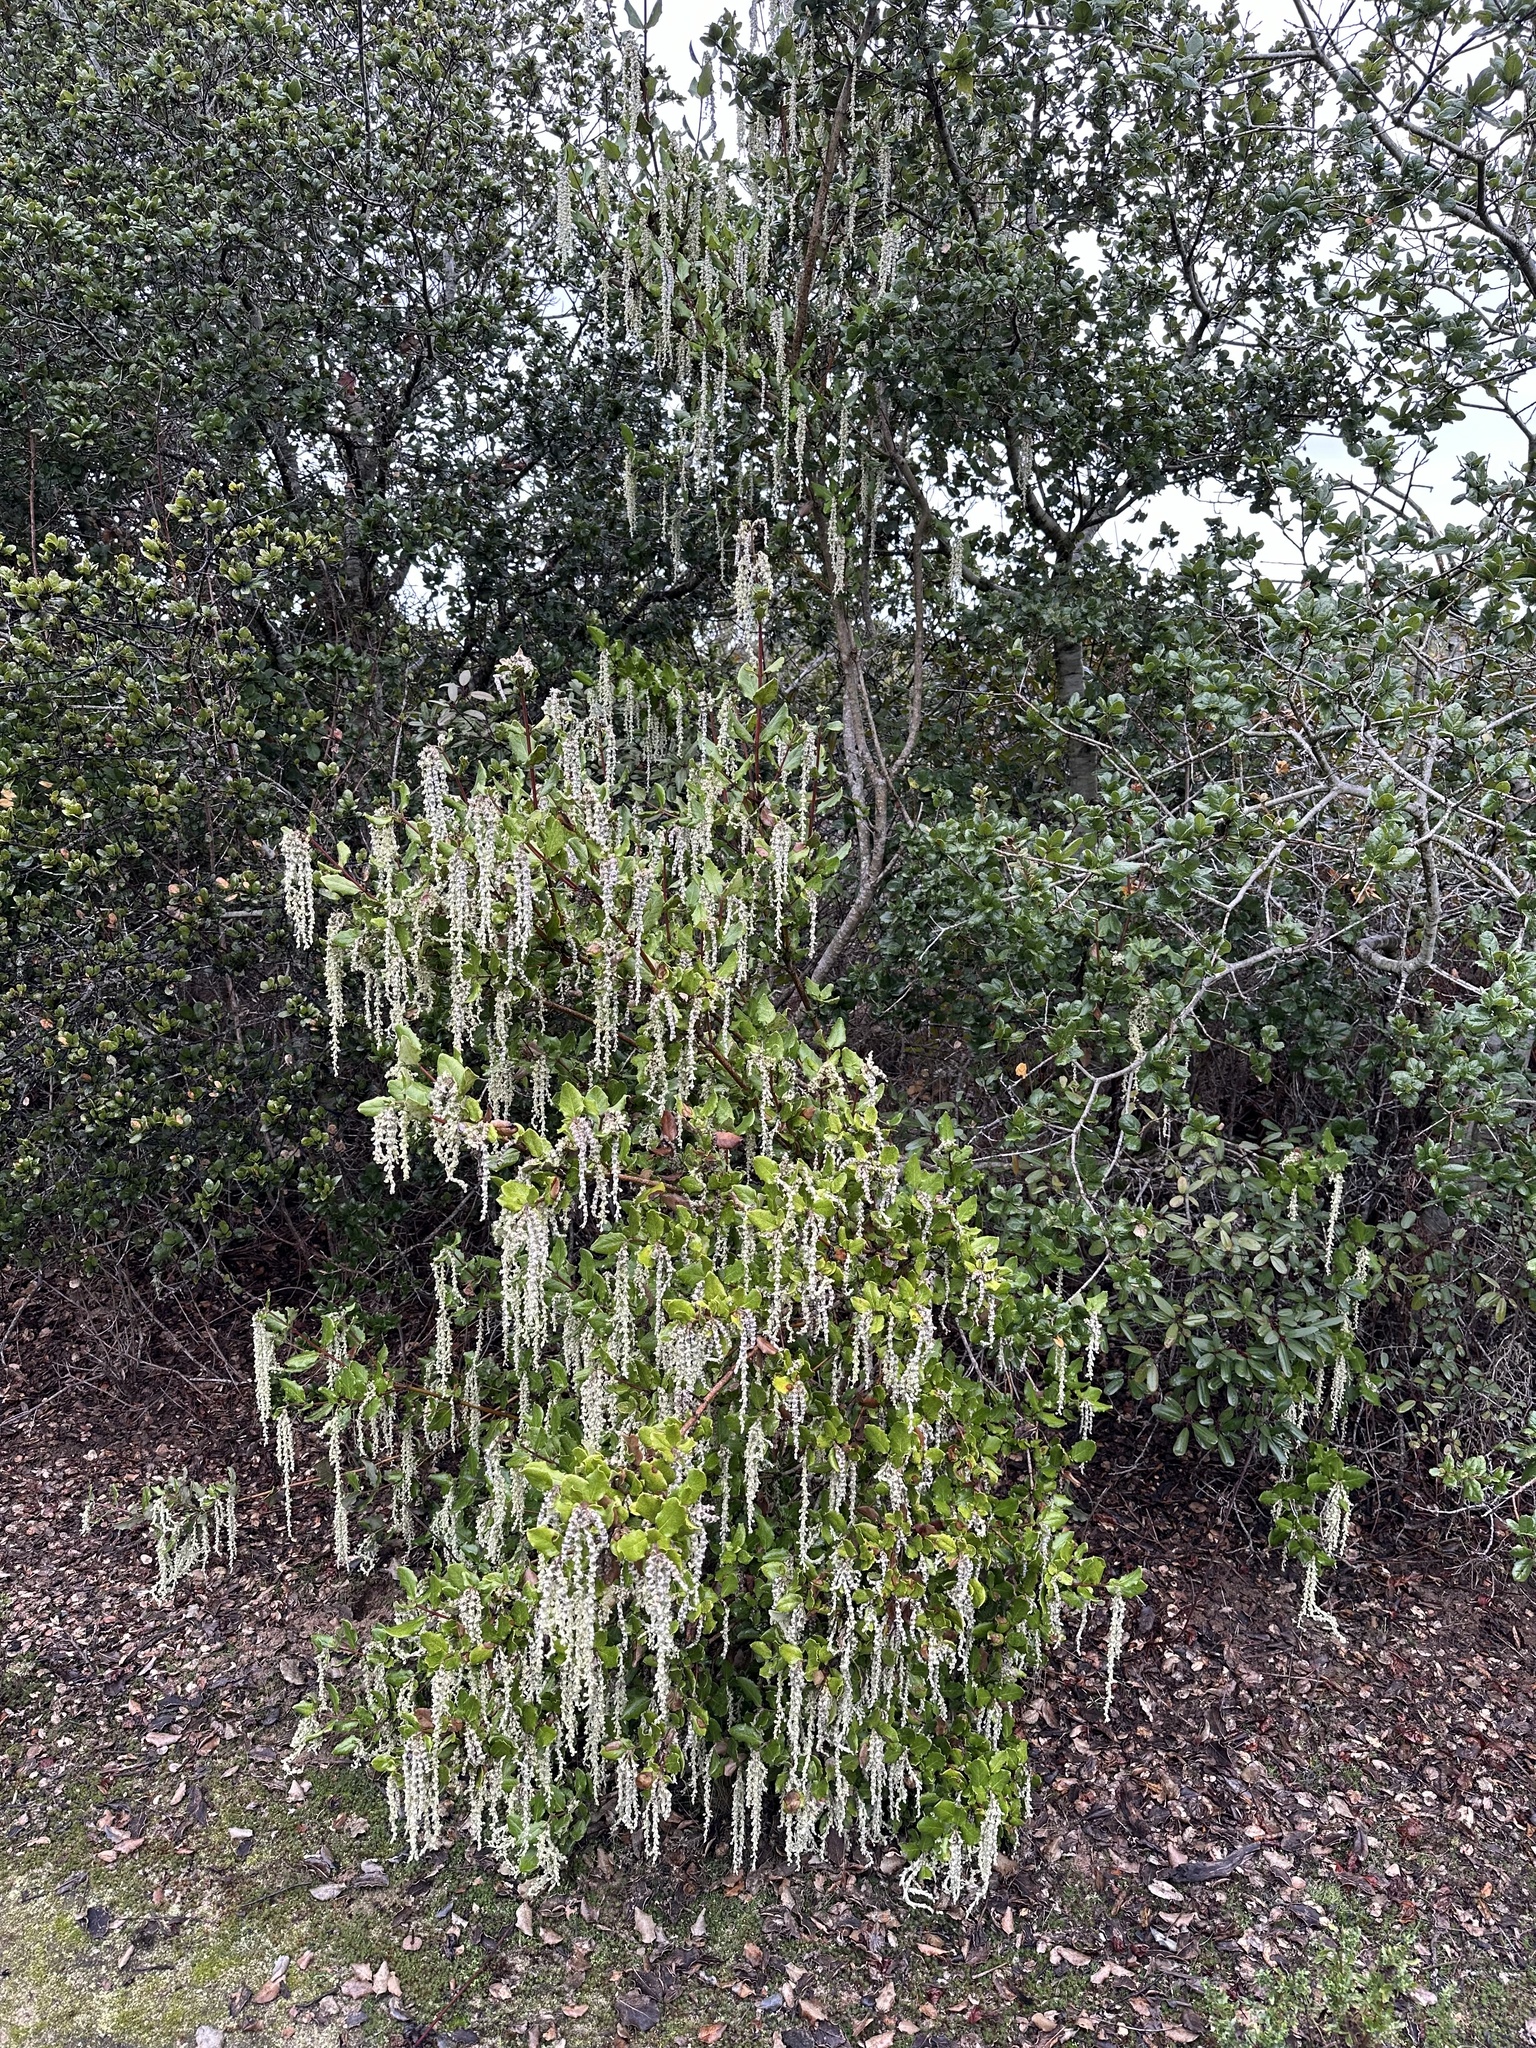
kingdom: Plantae
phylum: Tracheophyta
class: Magnoliopsida
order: Garryales
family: Garryaceae
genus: Garrya
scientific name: Garrya elliptica
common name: Silk-tassel
